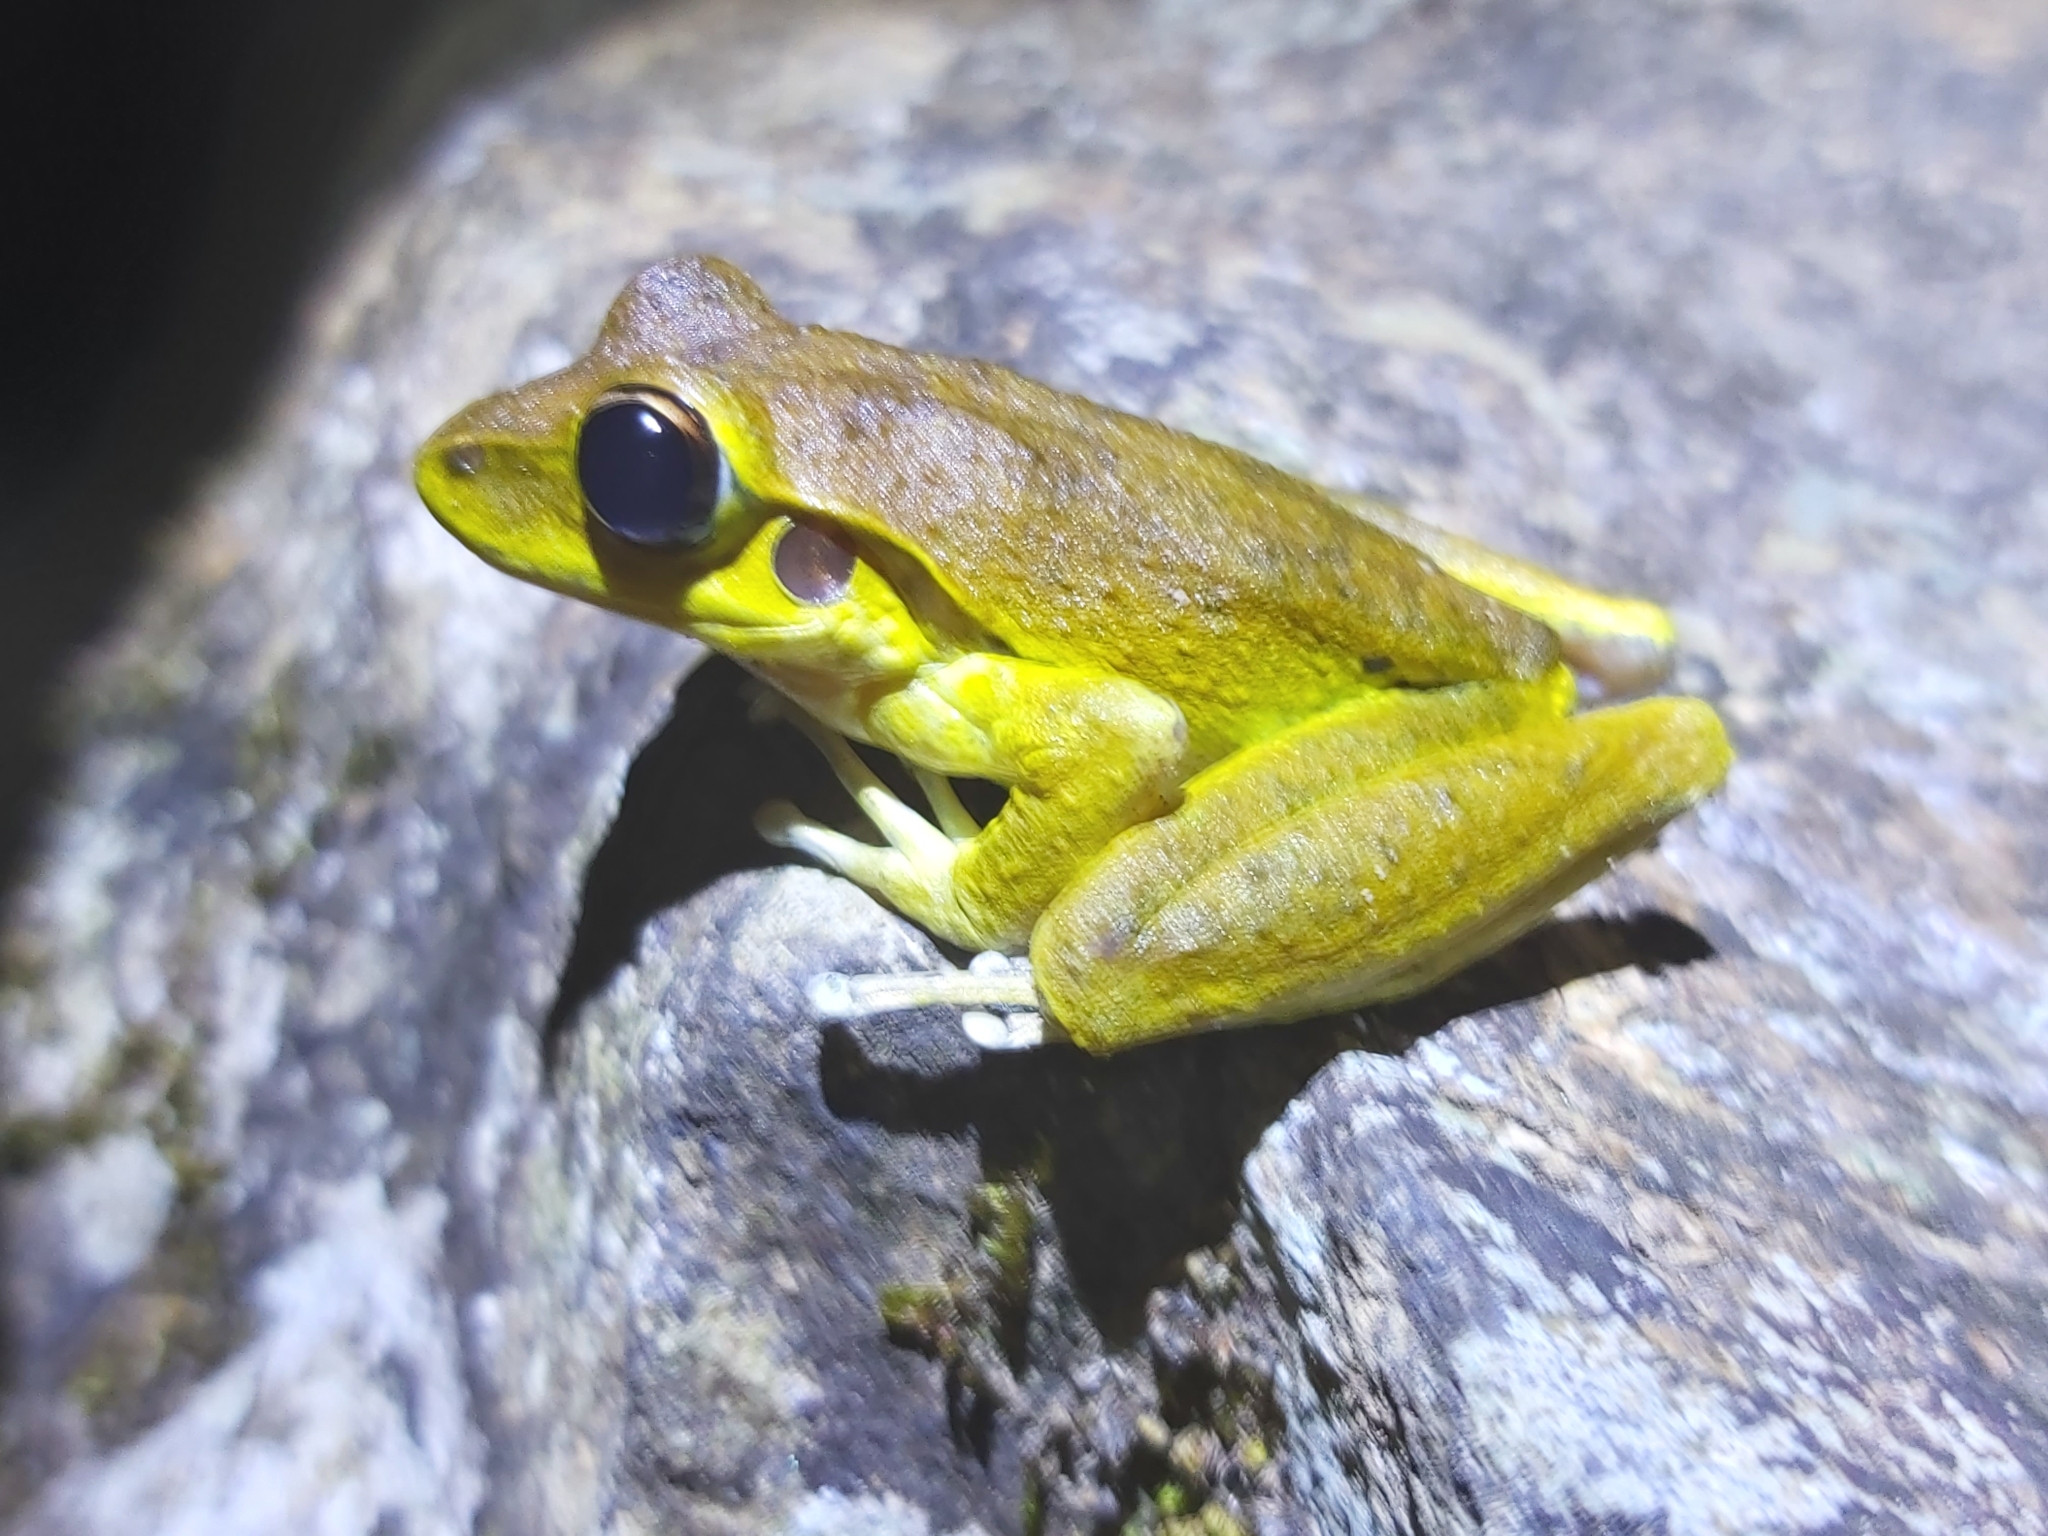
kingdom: Animalia
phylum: Chordata
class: Amphibia
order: Anura
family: Hylidae
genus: Ranoidea
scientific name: Ranoidea
